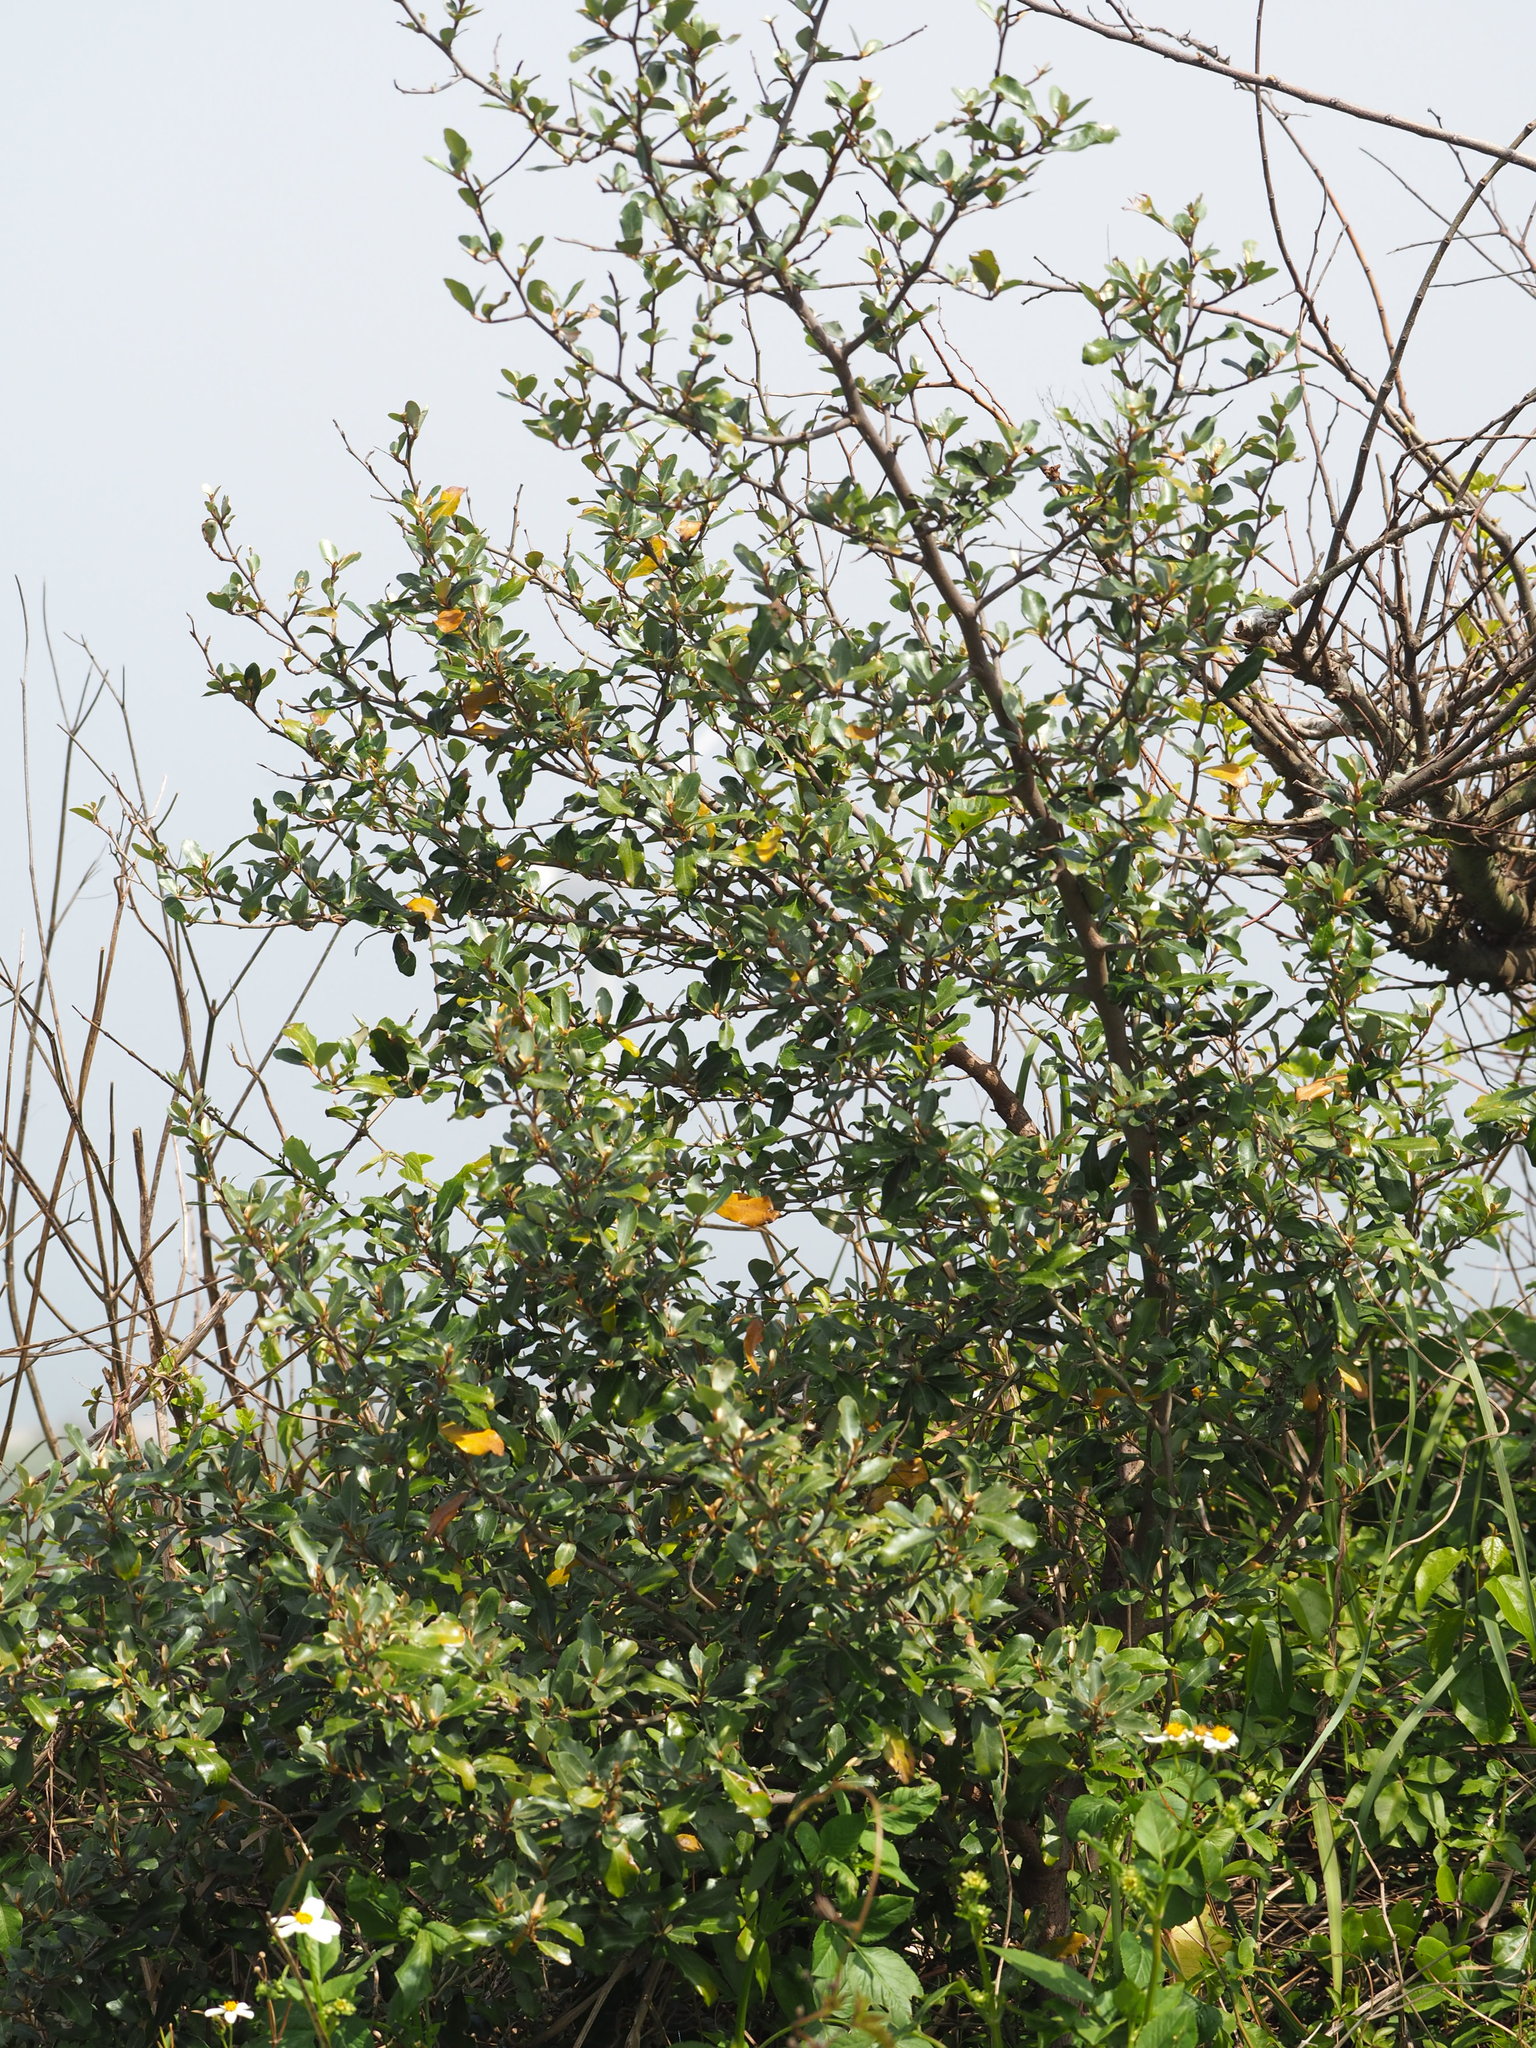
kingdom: Plantae
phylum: Tracheophyta
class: Magnoliopsida
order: Rosales
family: Elaeagnaceae
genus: Elaeagnus
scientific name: Elaeagnus oldhamii
